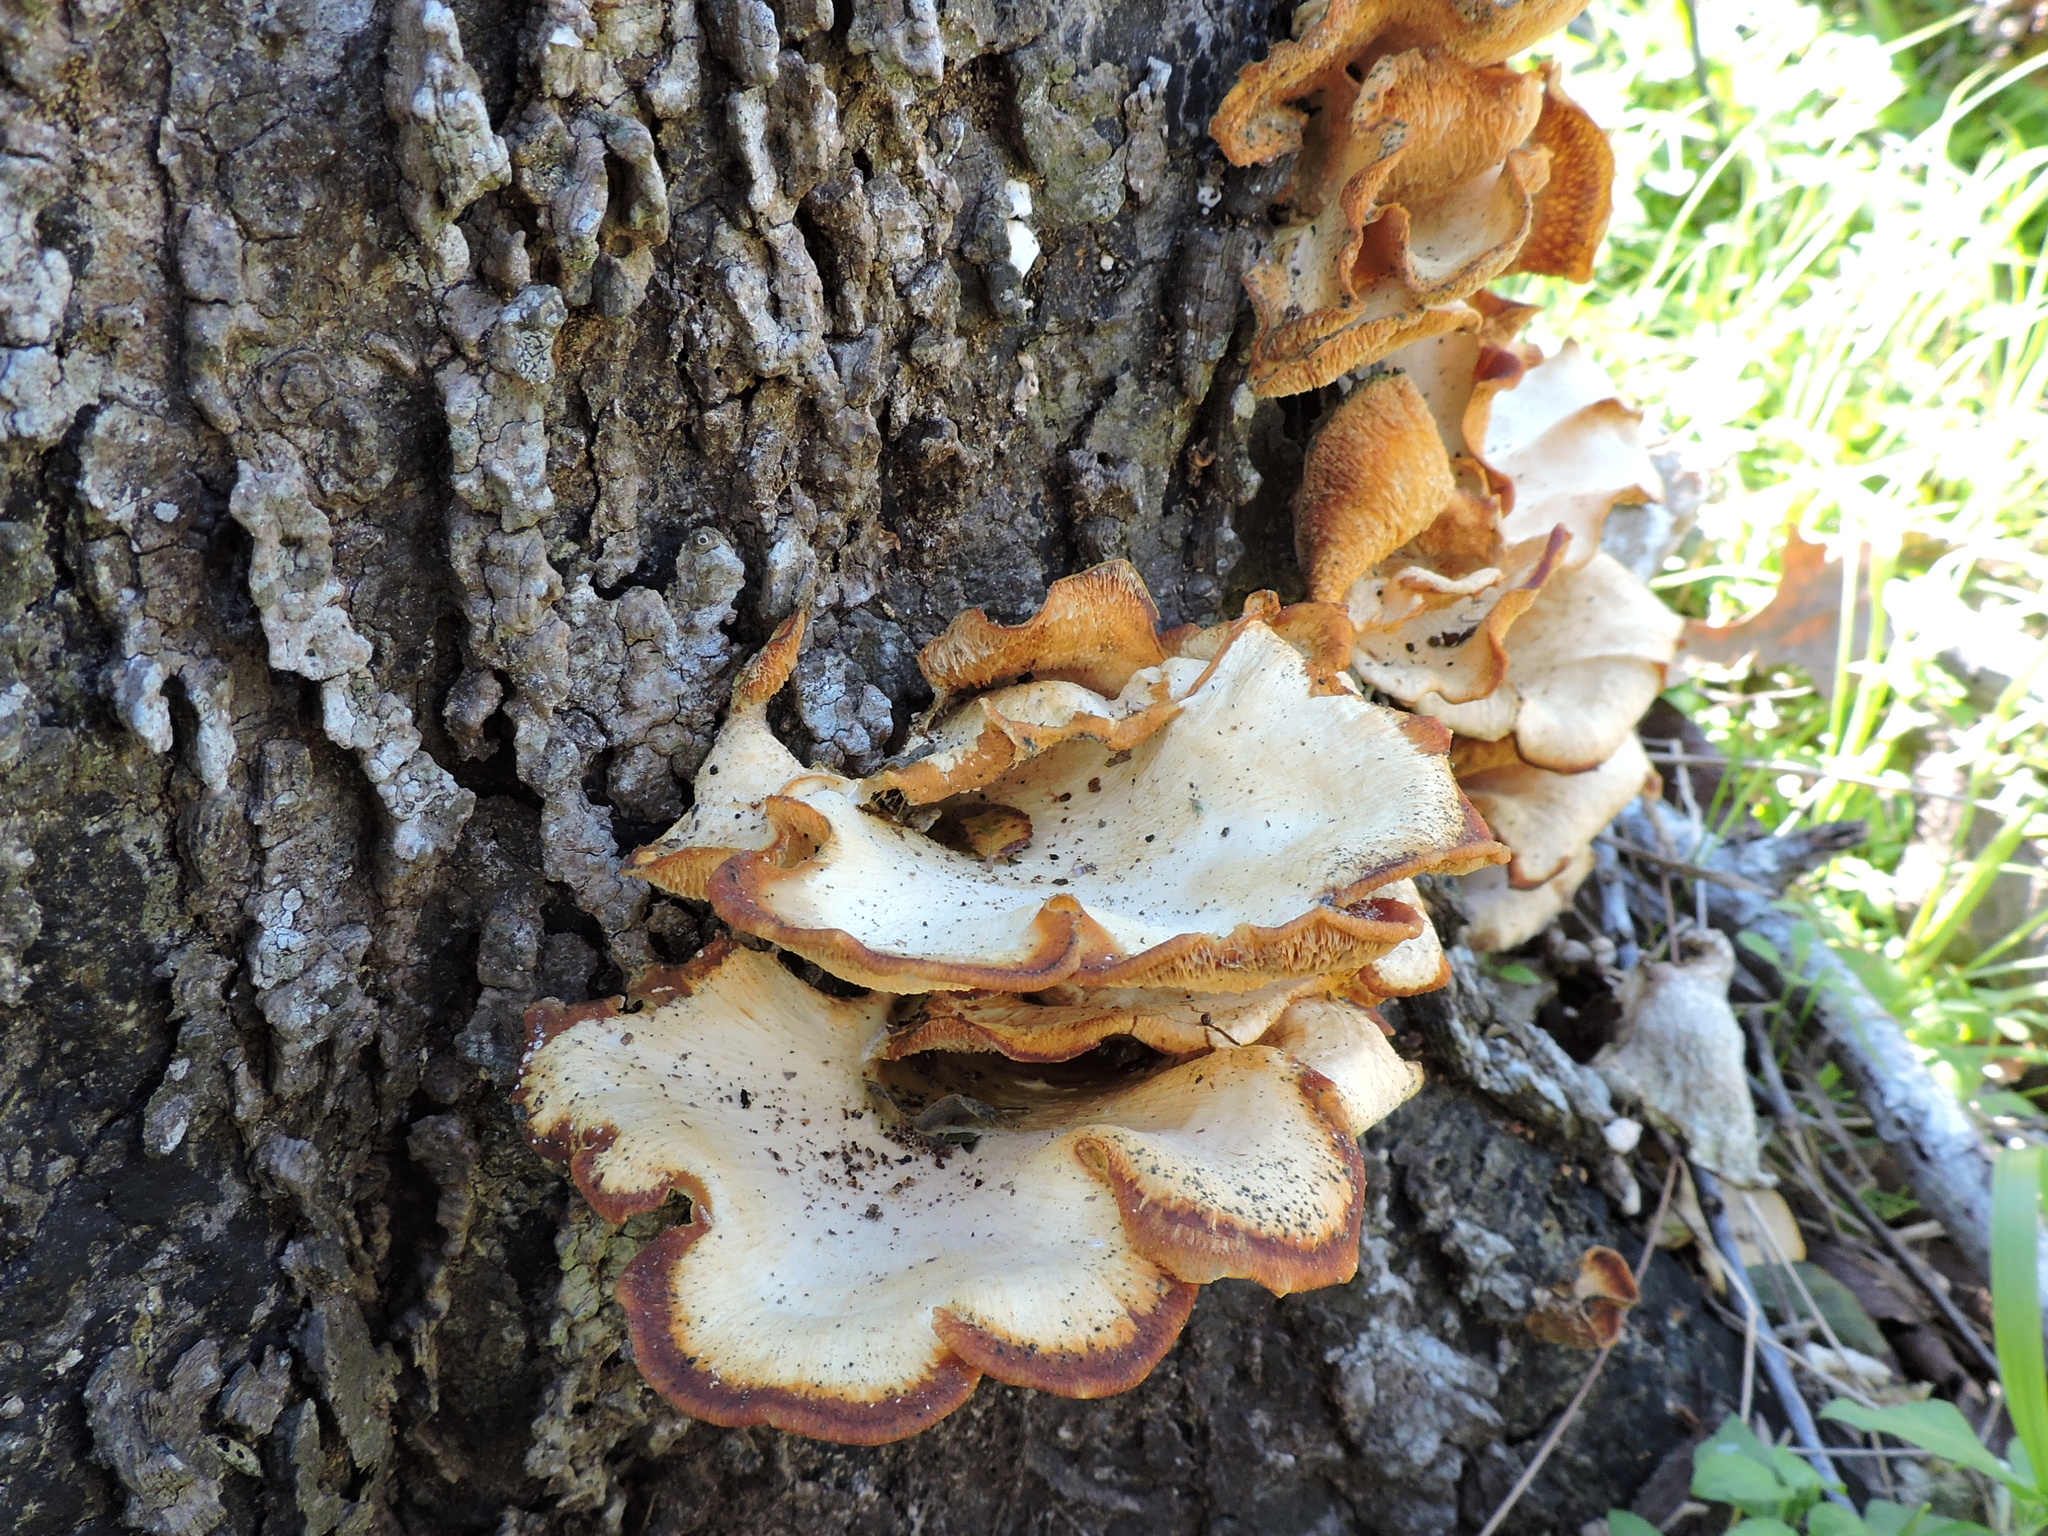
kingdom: Fungi
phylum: Basidiomycota
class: Agaricomycetes
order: Polyporales
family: Polyporaceae
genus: Favolus
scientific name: Favolus tenuiculus
